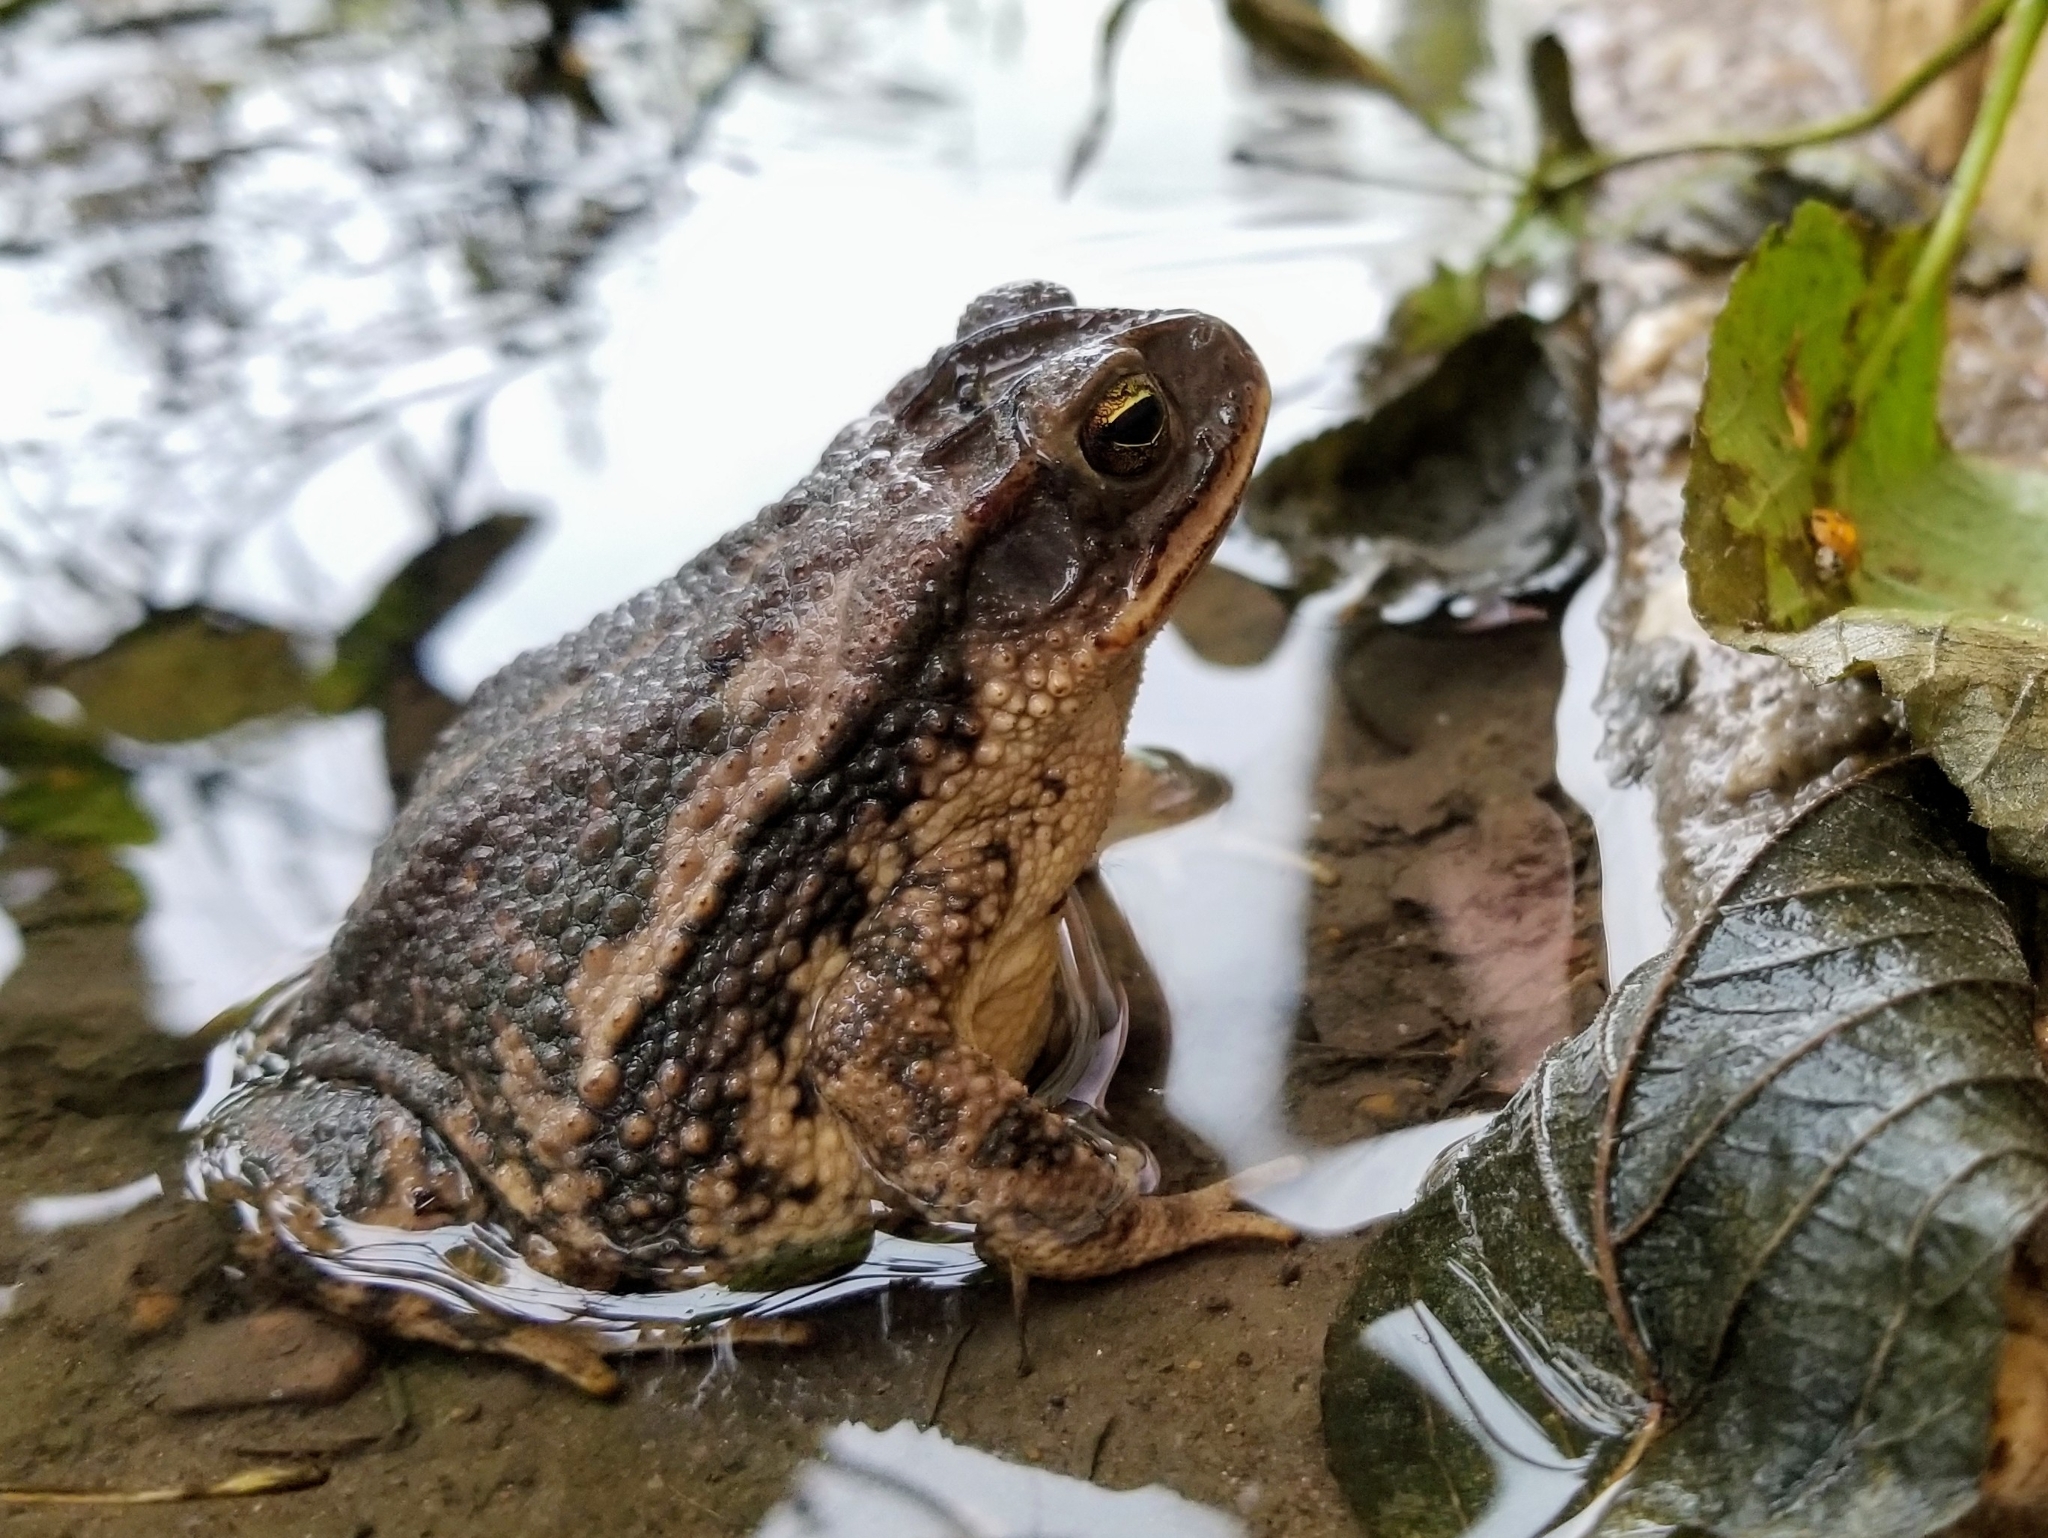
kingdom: Animalia
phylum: Chordata
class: Amphibia
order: Anura
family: Bufonidae
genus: Incilius
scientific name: Incilius nebulifer
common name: Gulf coast toad
